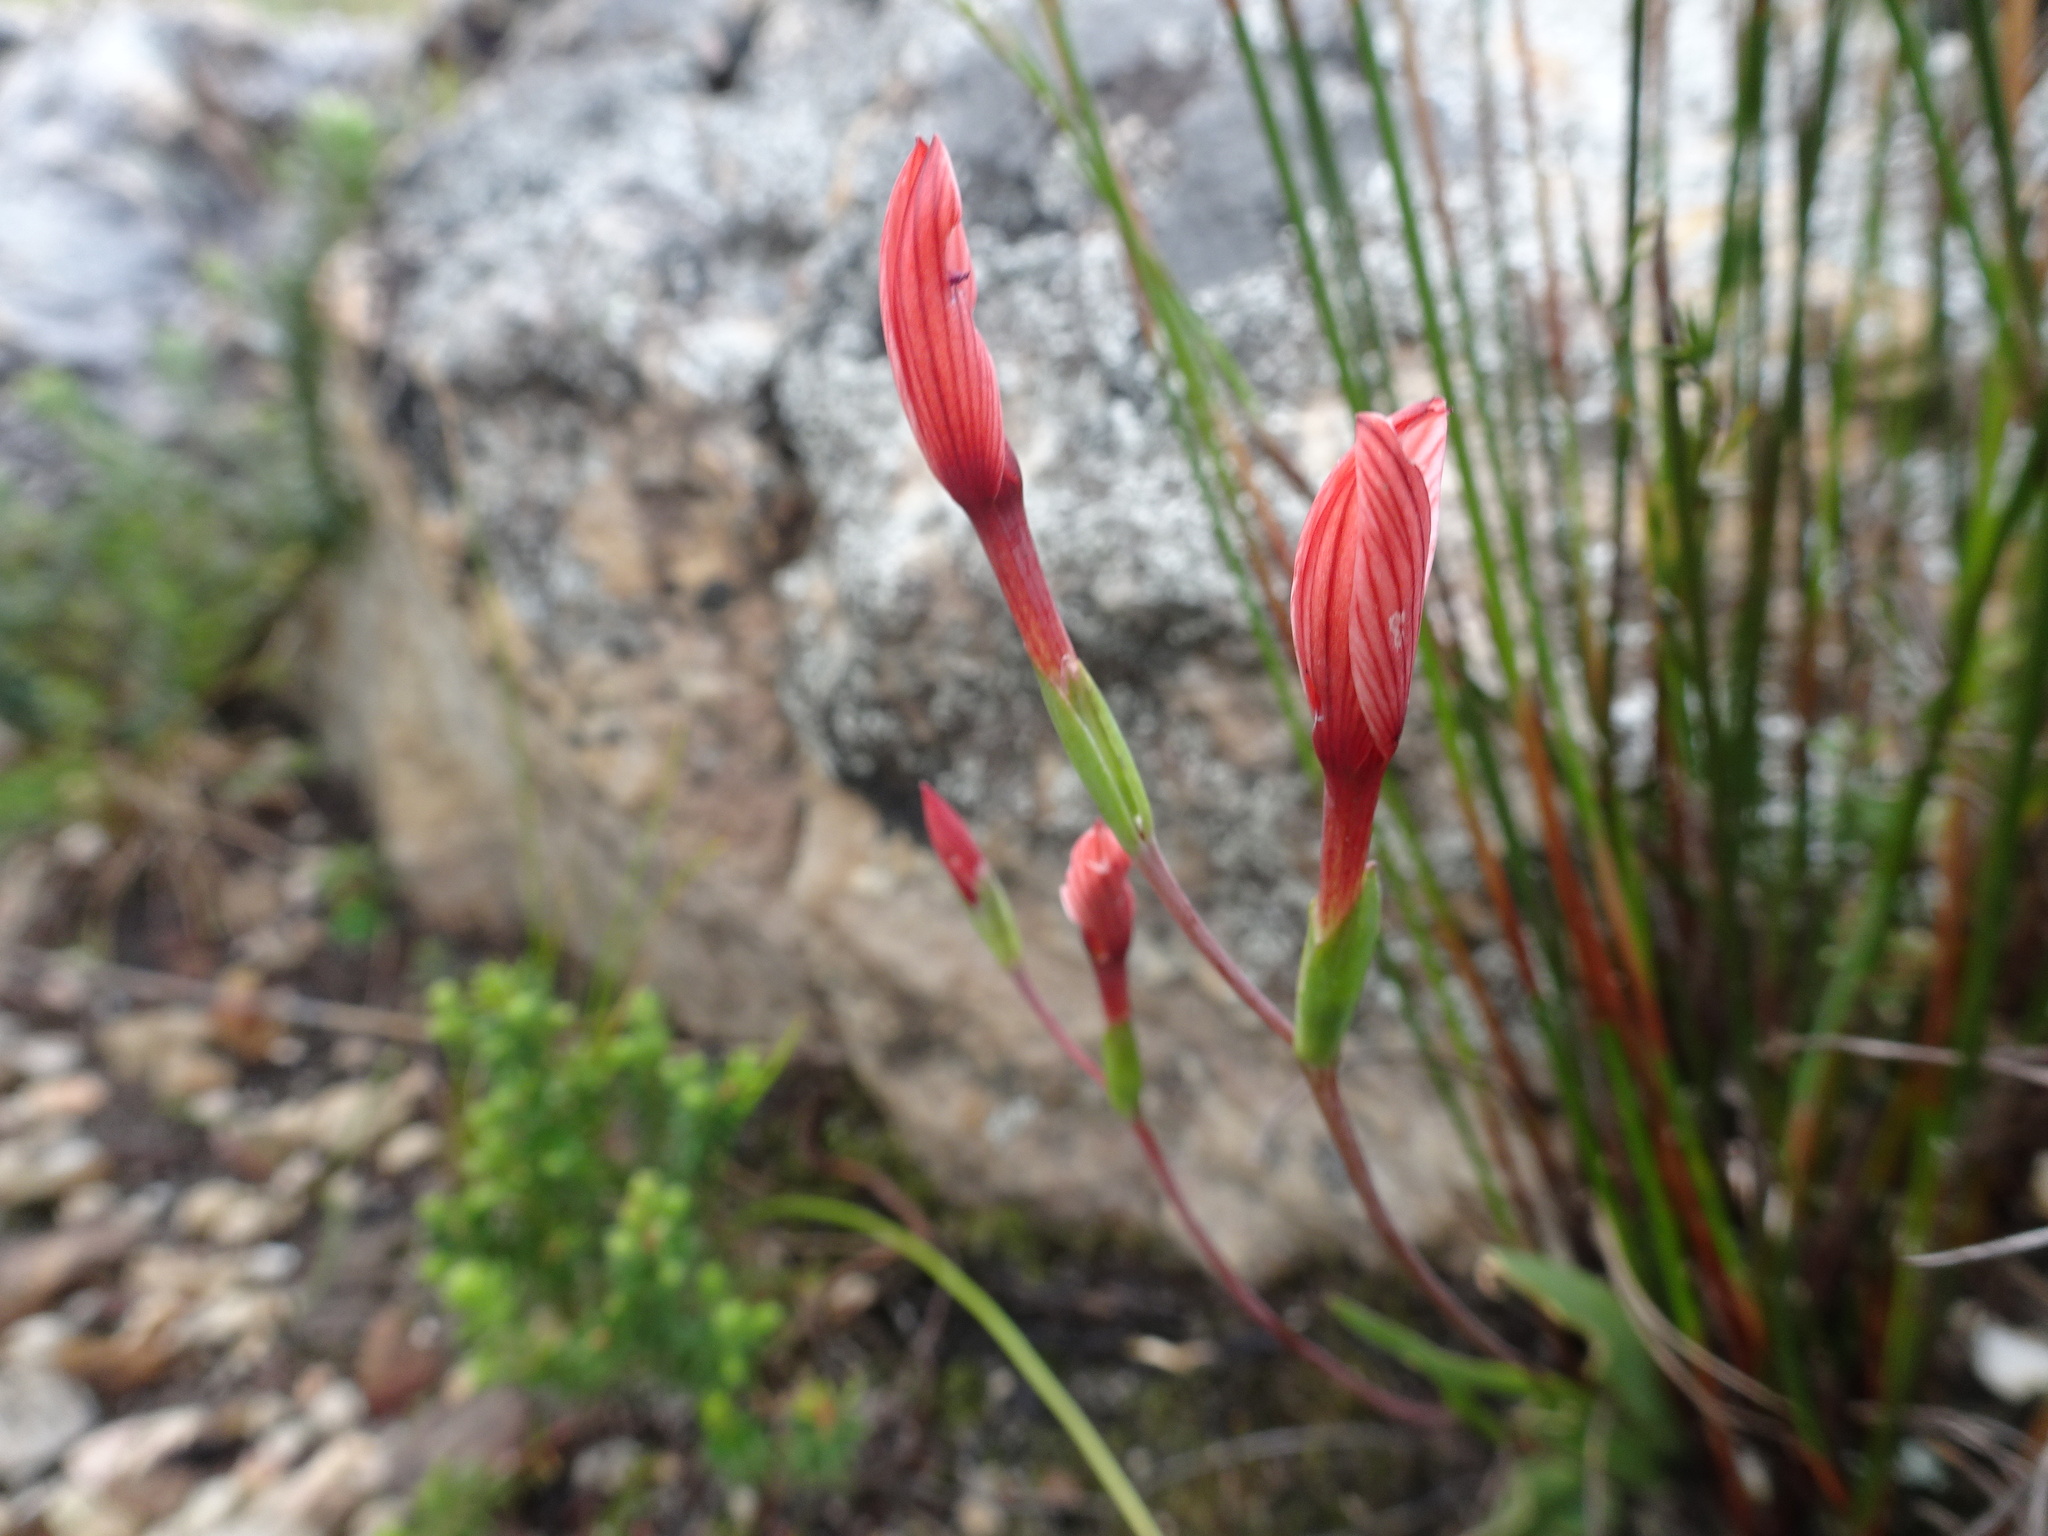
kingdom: Plantae
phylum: Tracheophyta
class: Liliopsida
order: Asparagales
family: Iridaceae
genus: Geissorhiza
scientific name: Geissorhiza ovata
